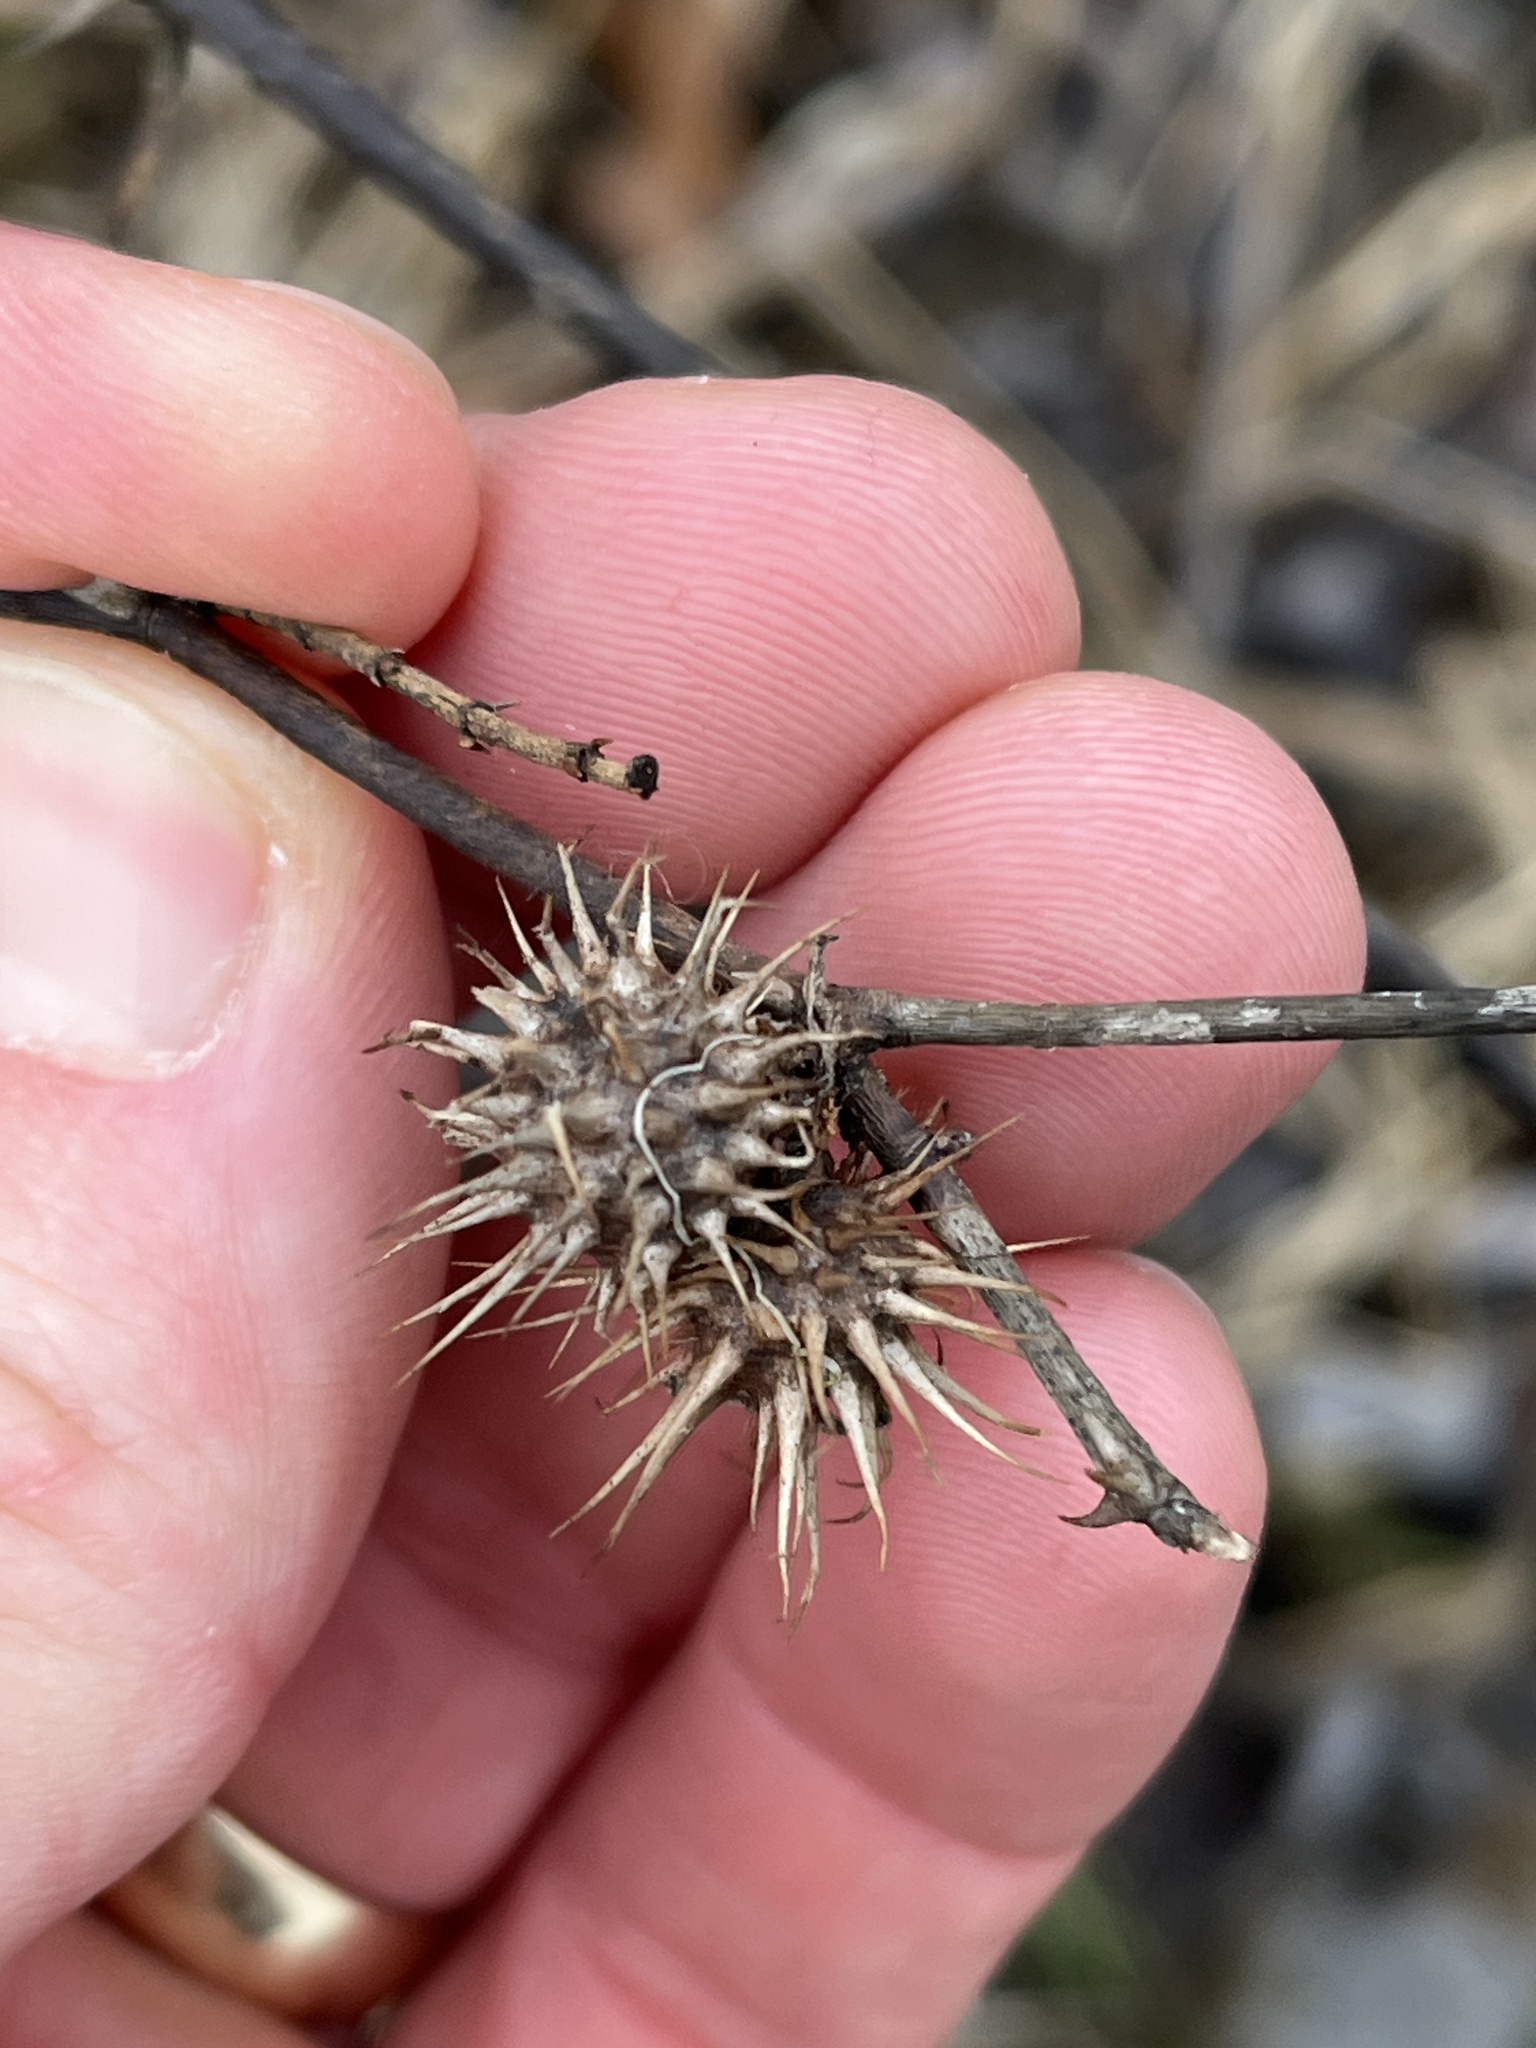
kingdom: Animalia
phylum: Arthropoda
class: Insecta
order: Hymenoptera
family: Cynipidae
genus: Diplolepis
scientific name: Diplolepis bicolor
